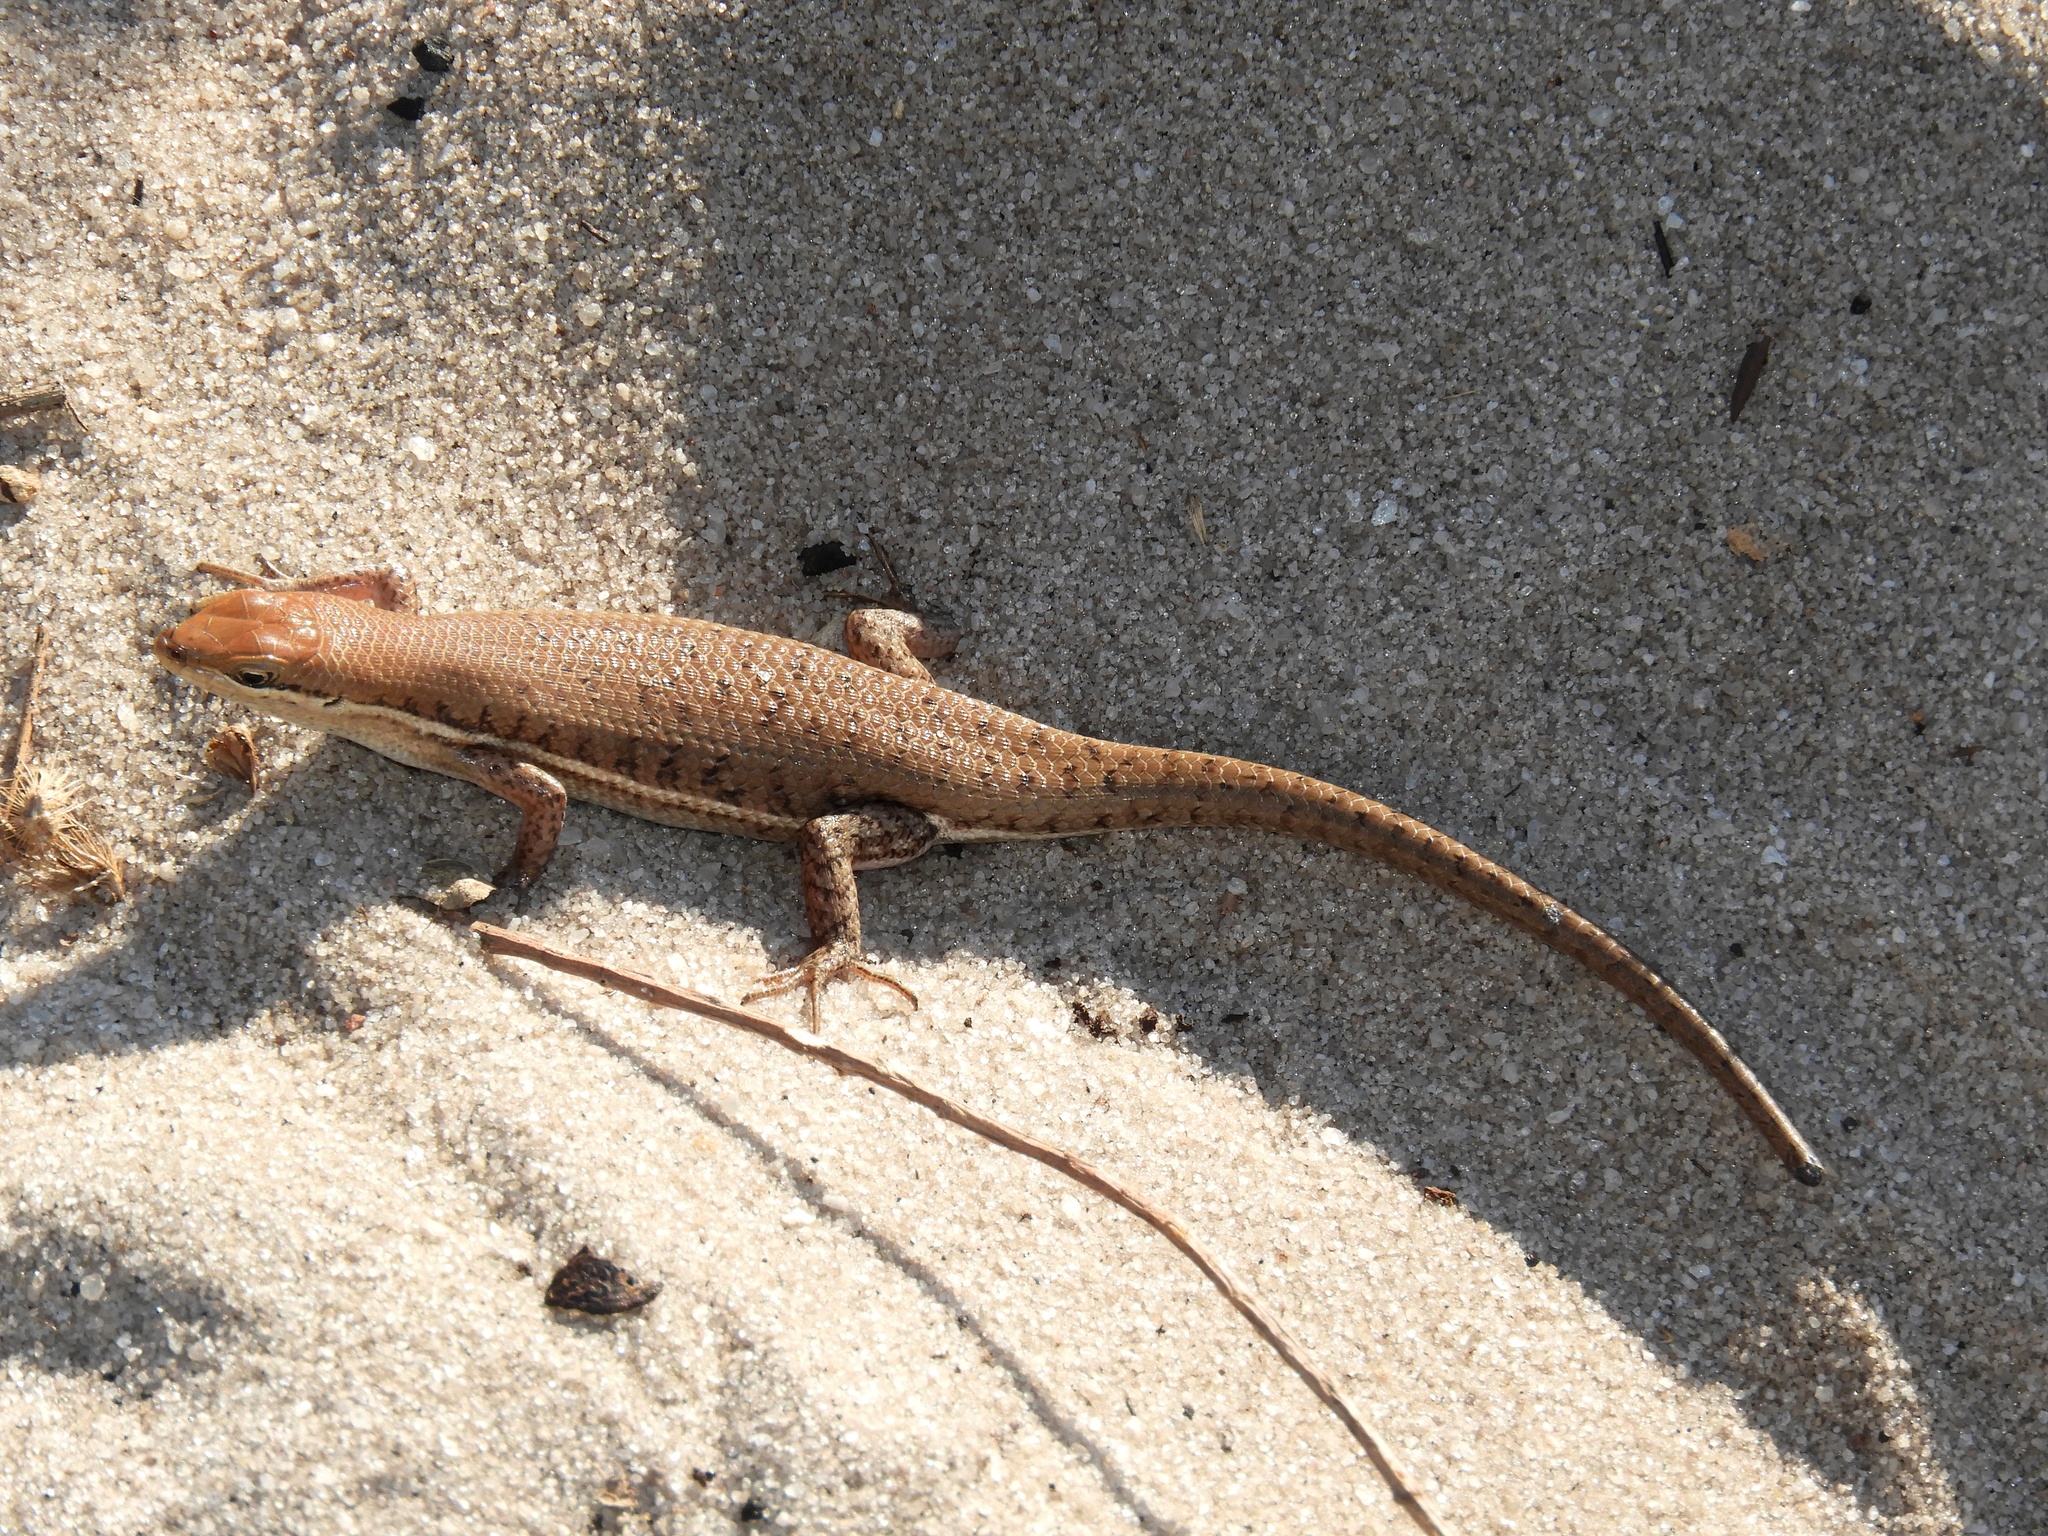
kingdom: Animalia
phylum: Chordata
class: Squamata
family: Scincidae
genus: Trachylepis
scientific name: Trachylepis varia
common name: Eastern variable skink
